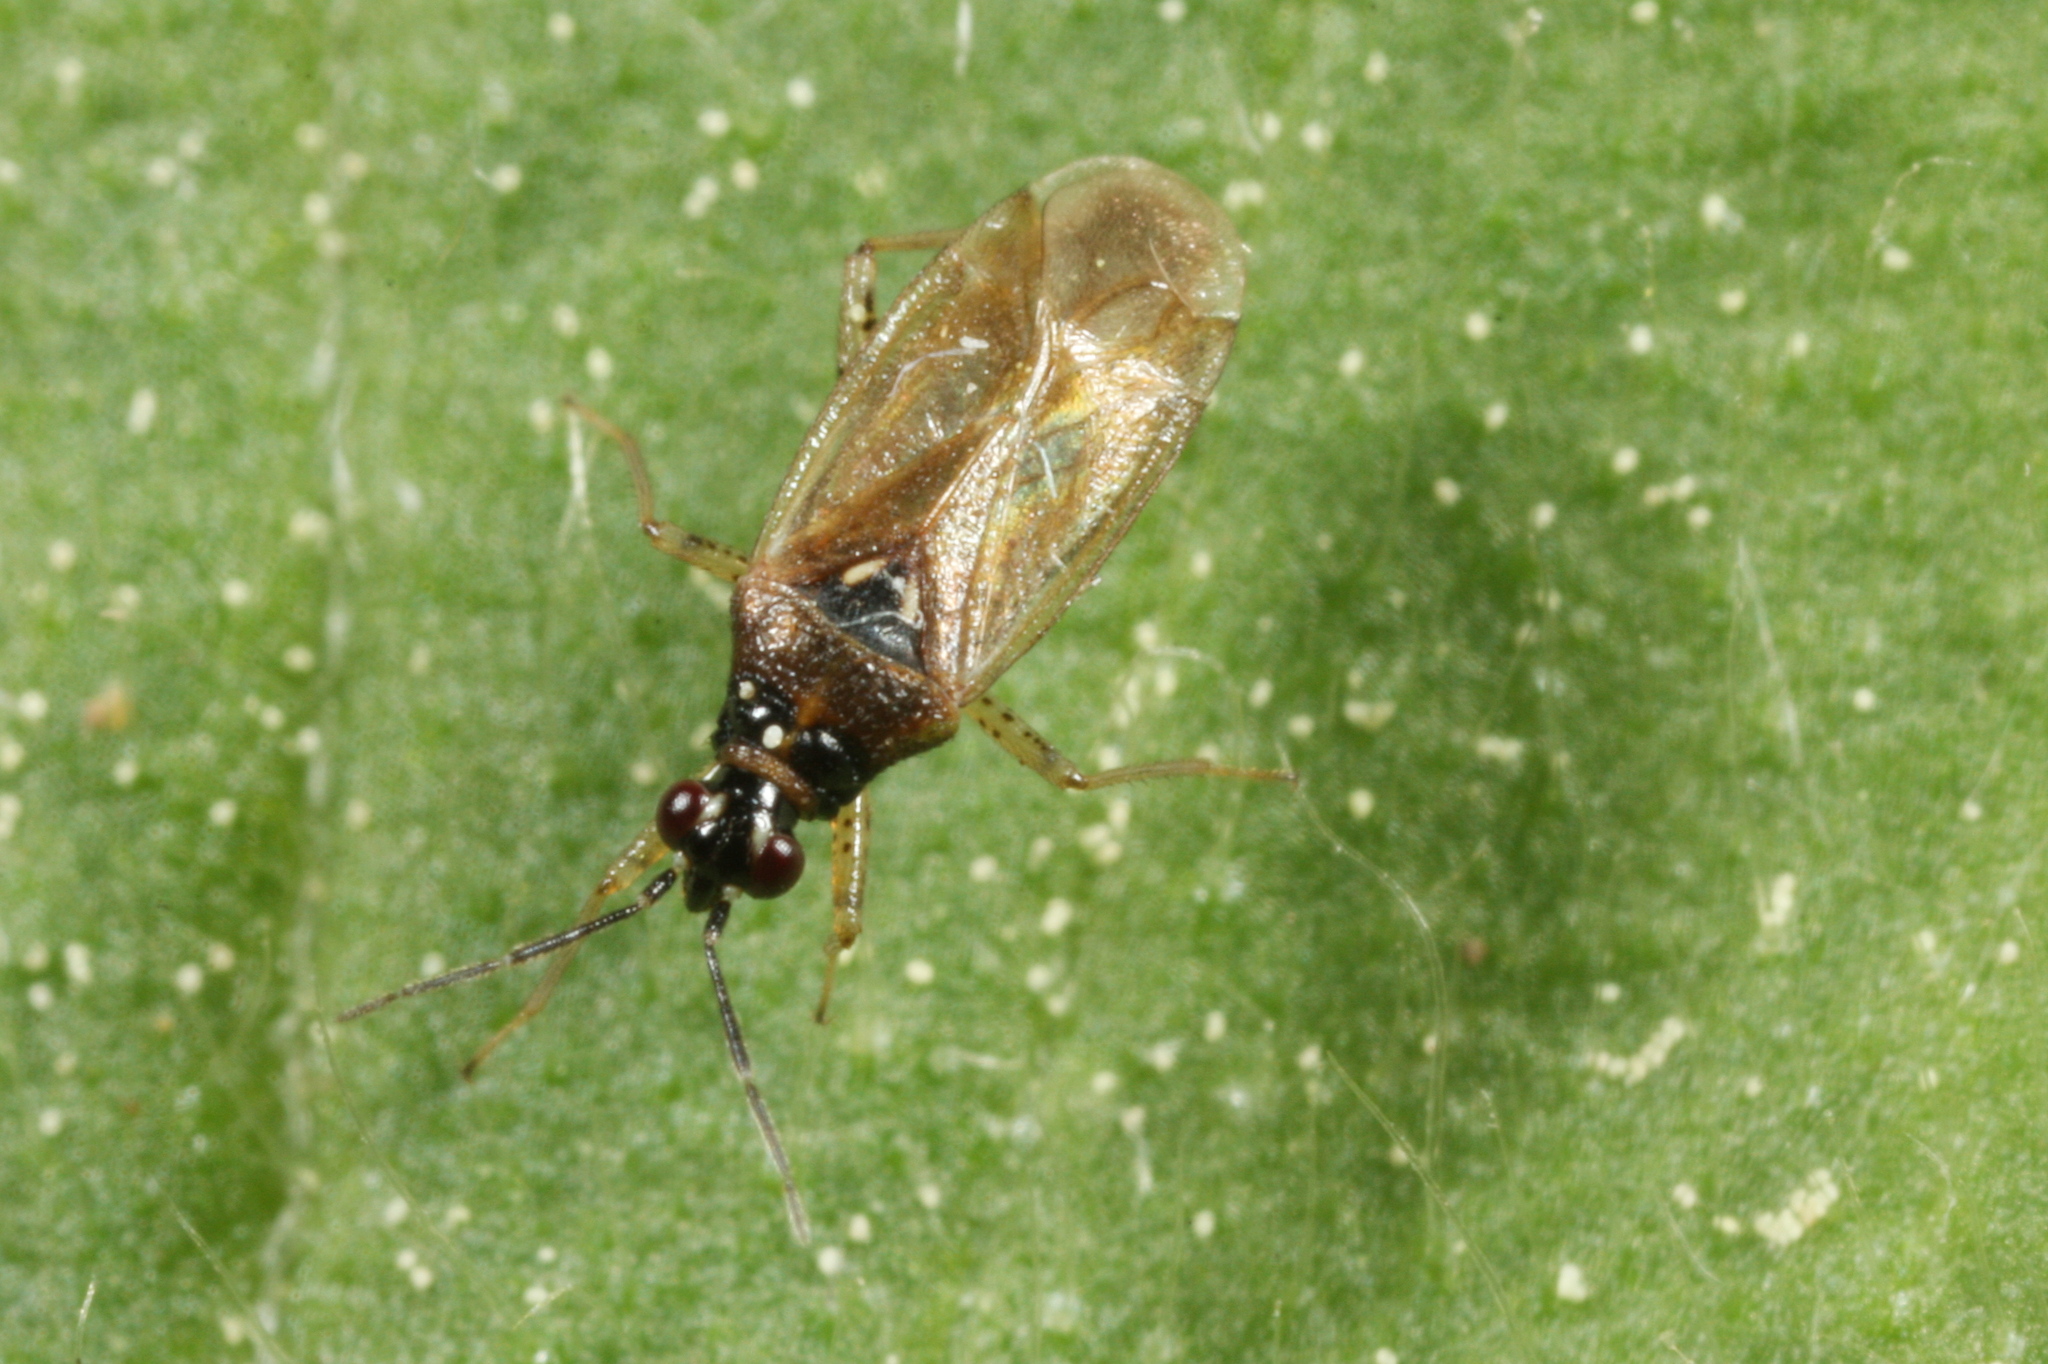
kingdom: Animalia
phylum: Arthropoda
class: Insecta
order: Hemiptera
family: Miridae
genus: Dicyphus
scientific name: Dicyphus globulifer
